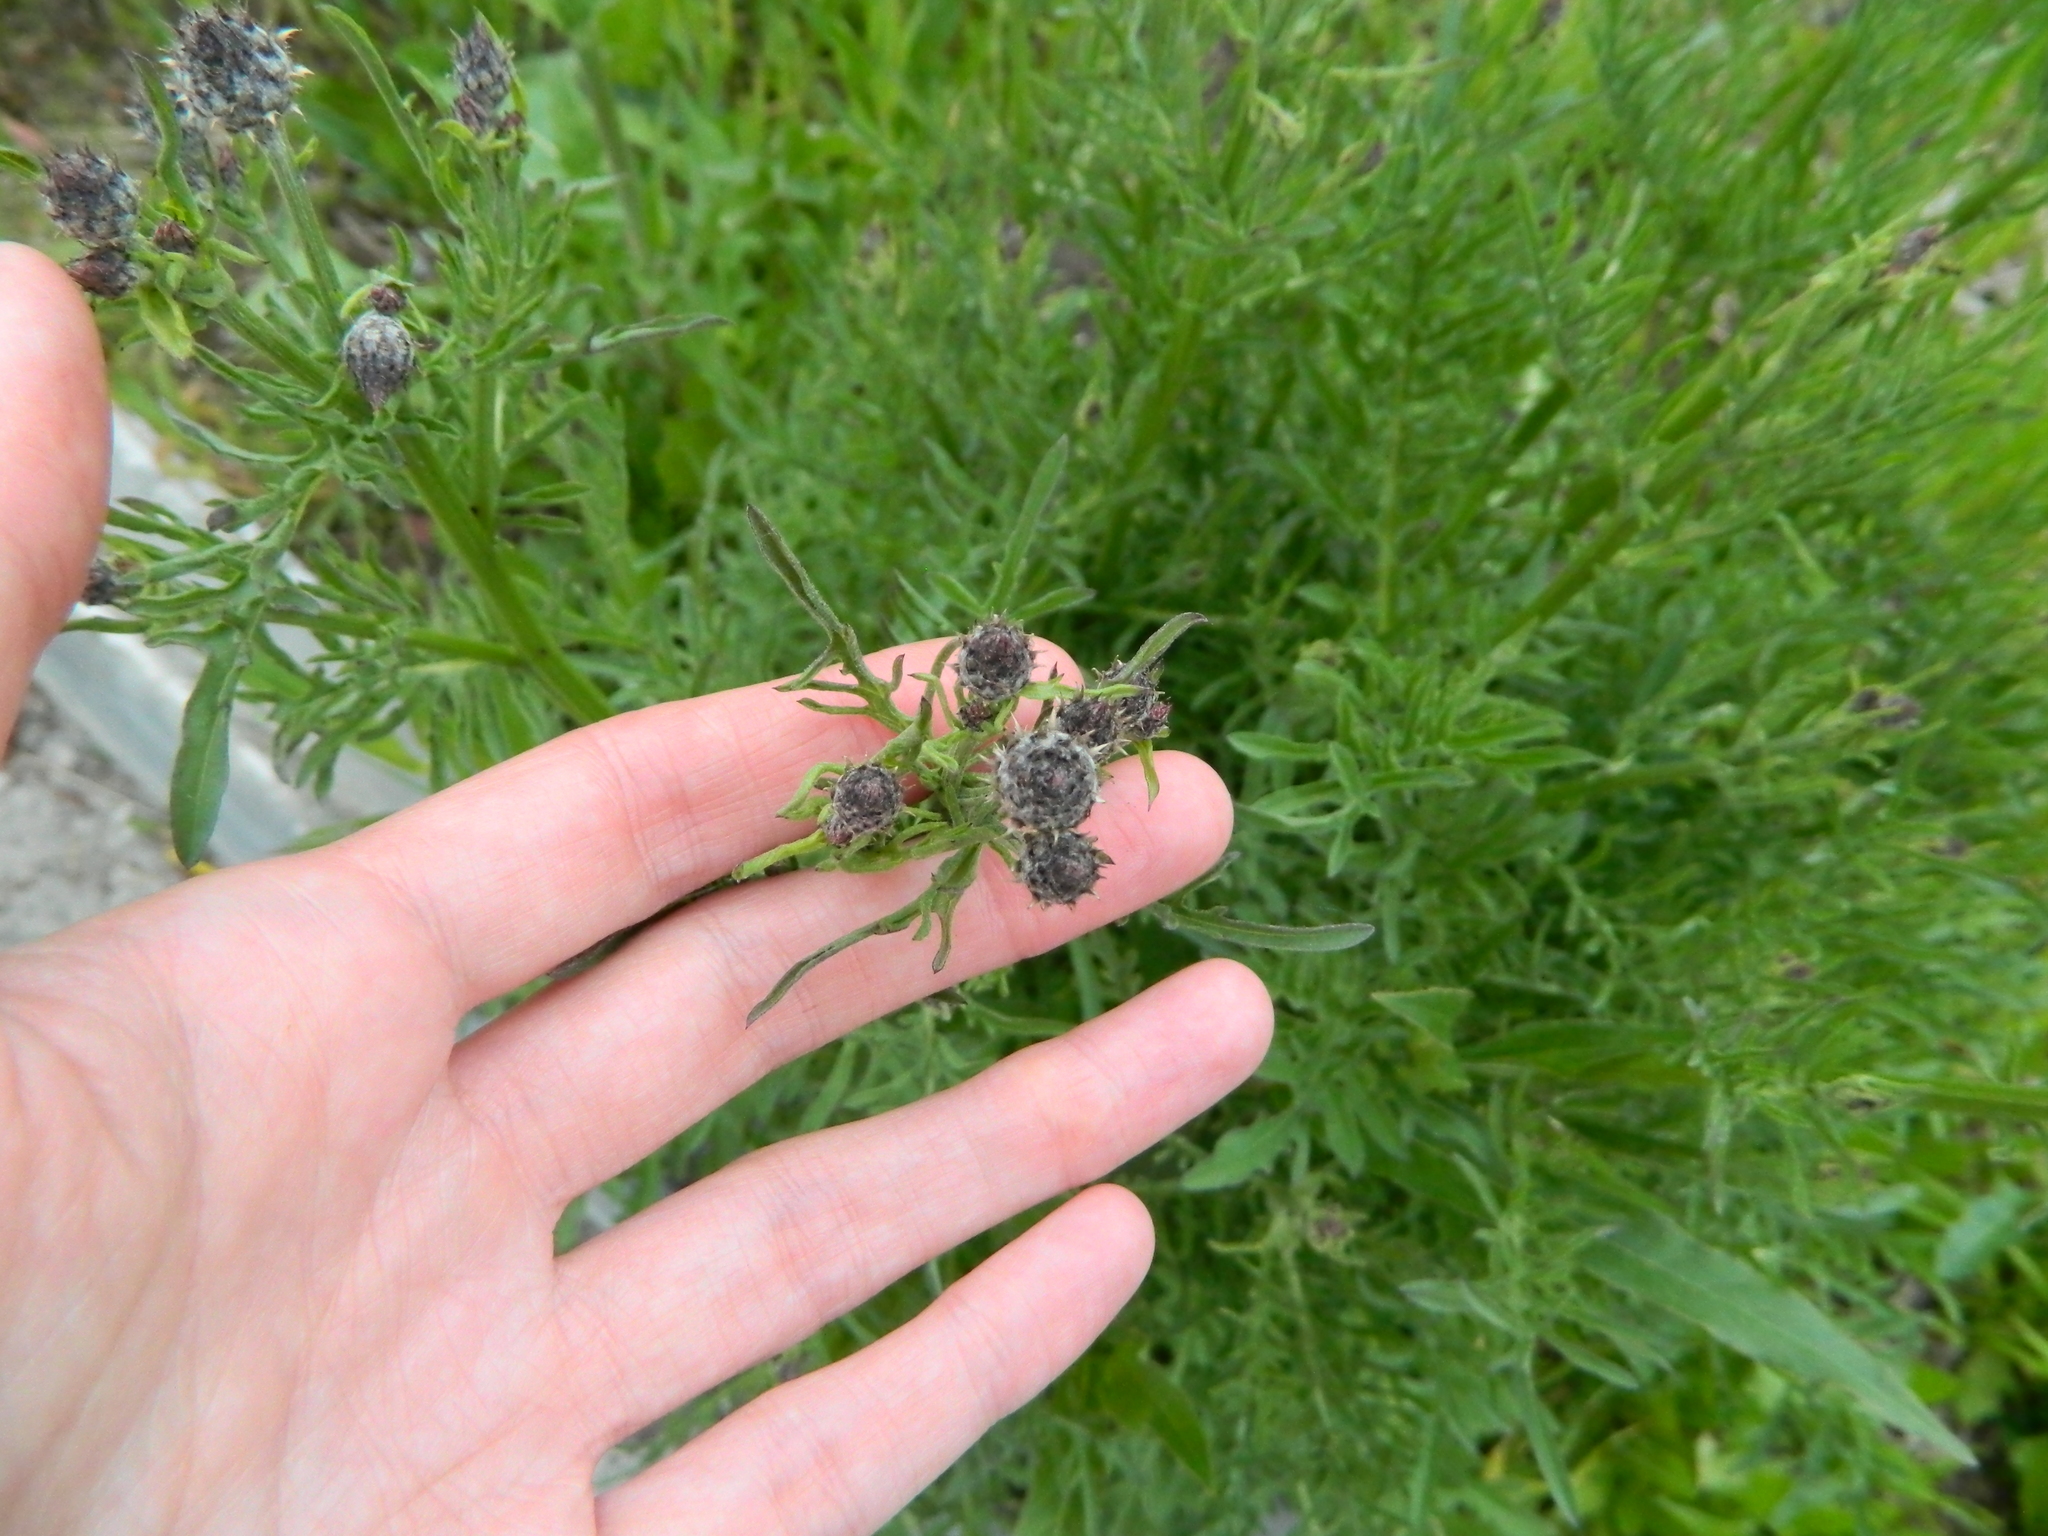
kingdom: Plantae
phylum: Tracheophyta
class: Magnoliopsida
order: Asterales
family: Asteraceae
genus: Centaurea
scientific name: Centaurea scabiosa
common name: Greater knapweed
